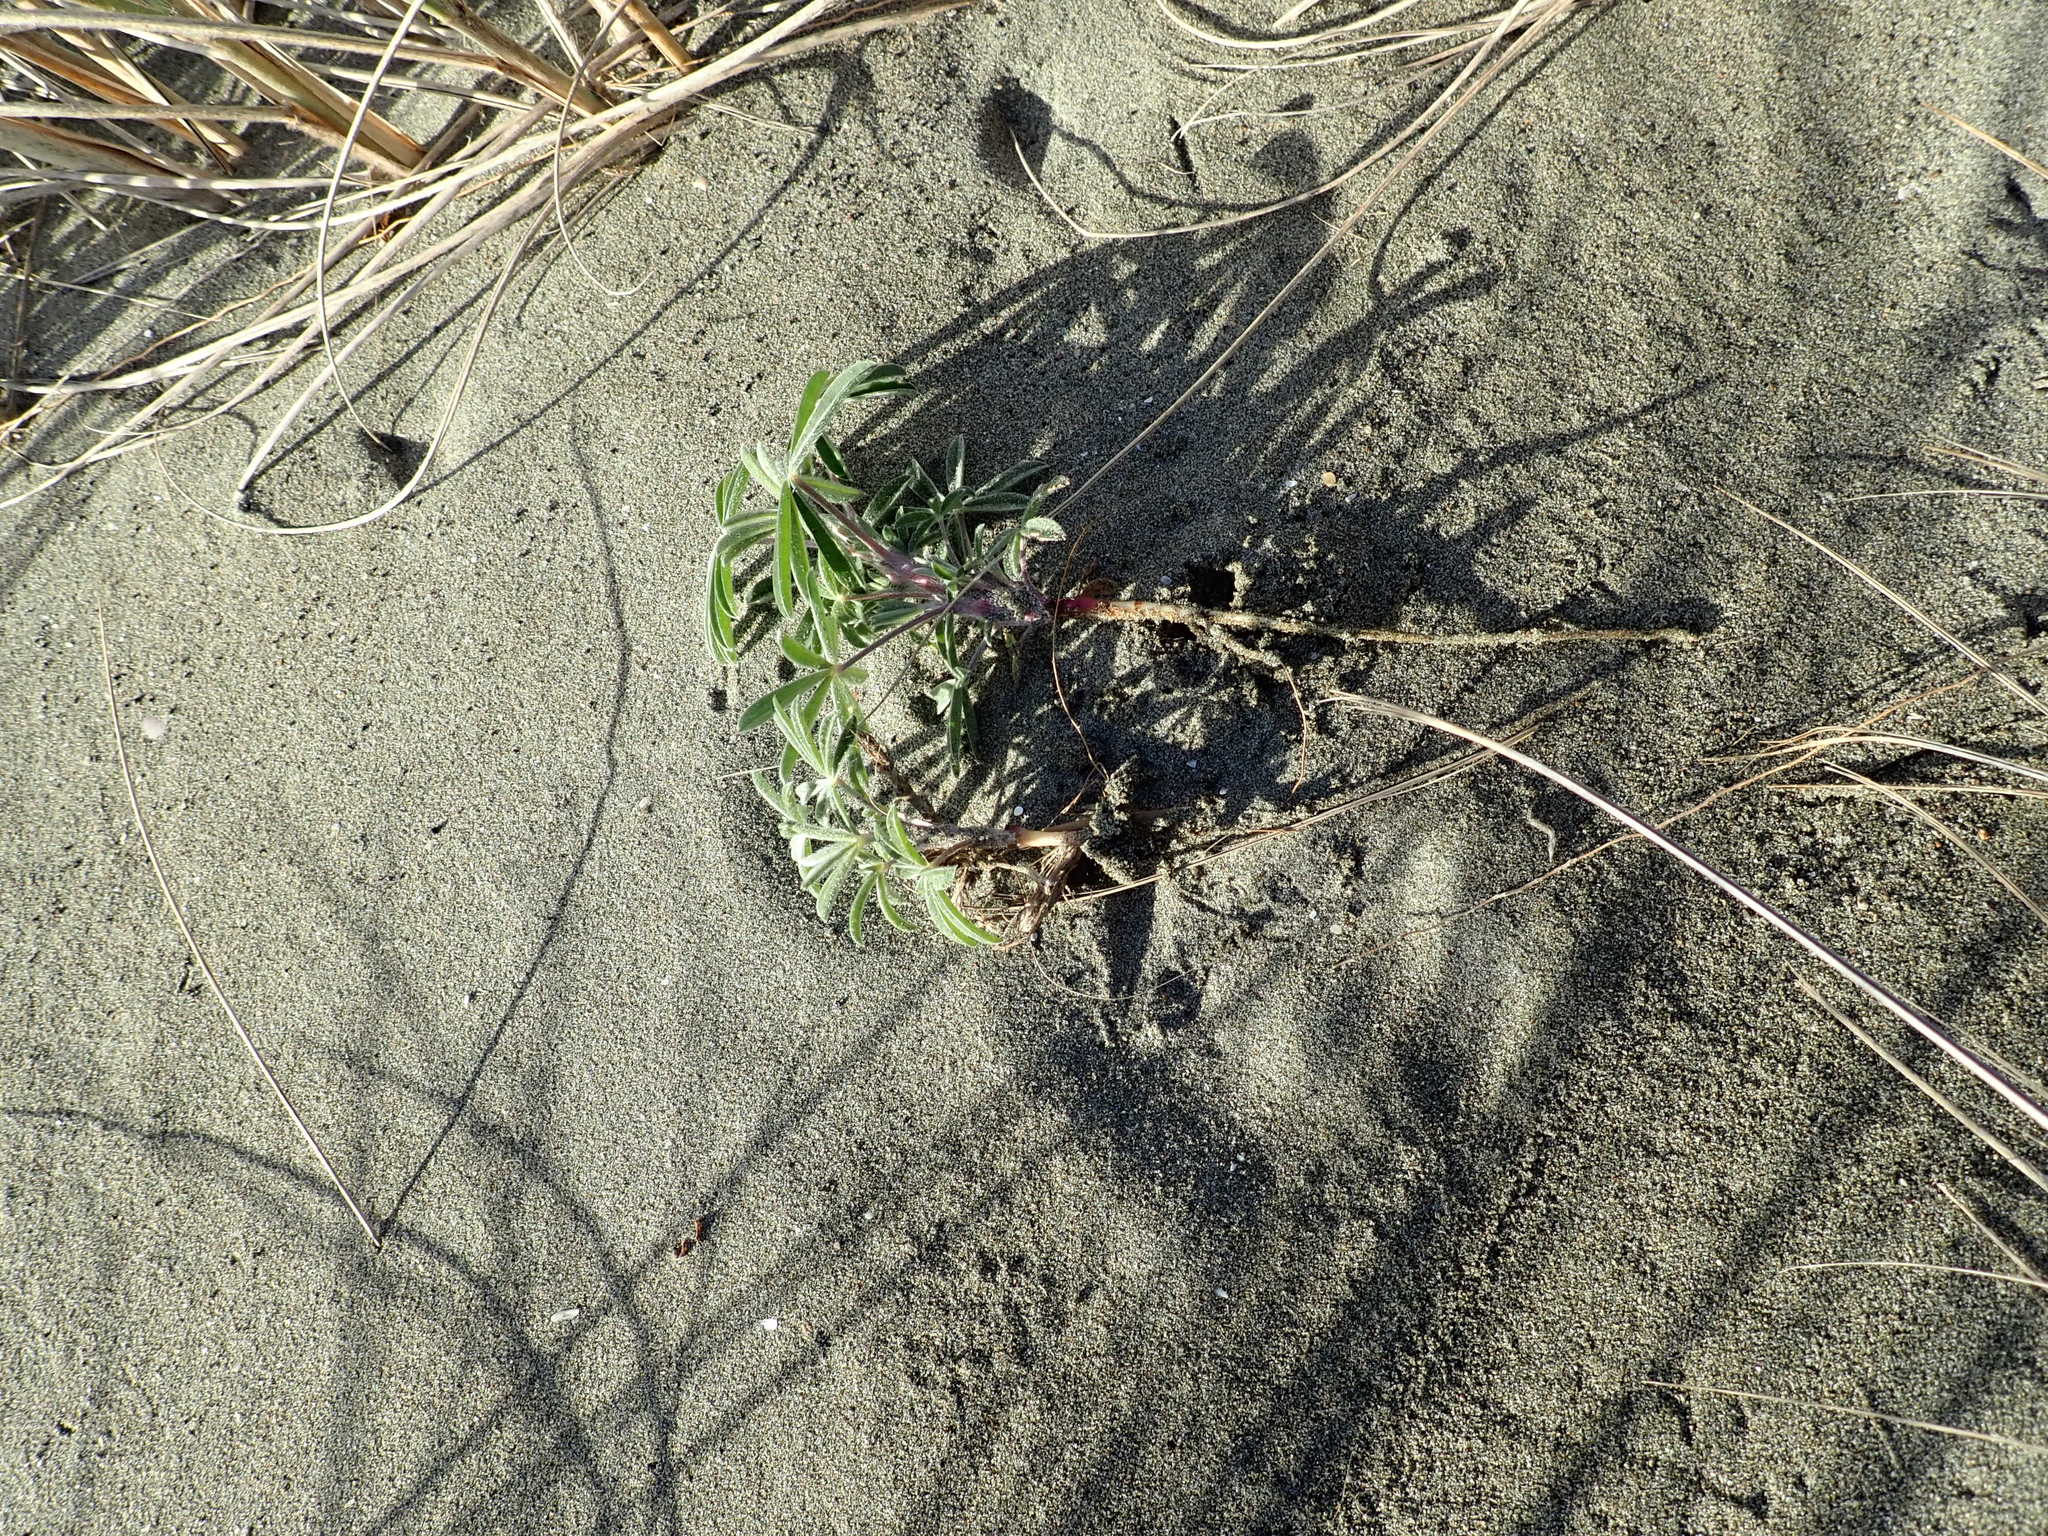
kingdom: Plantae
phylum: Tracheophyta
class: Magnoliopsida
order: Fabales
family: Fabaceae
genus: Lupinus
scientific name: Lupinus arboreus
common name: Yellow bush lupine
